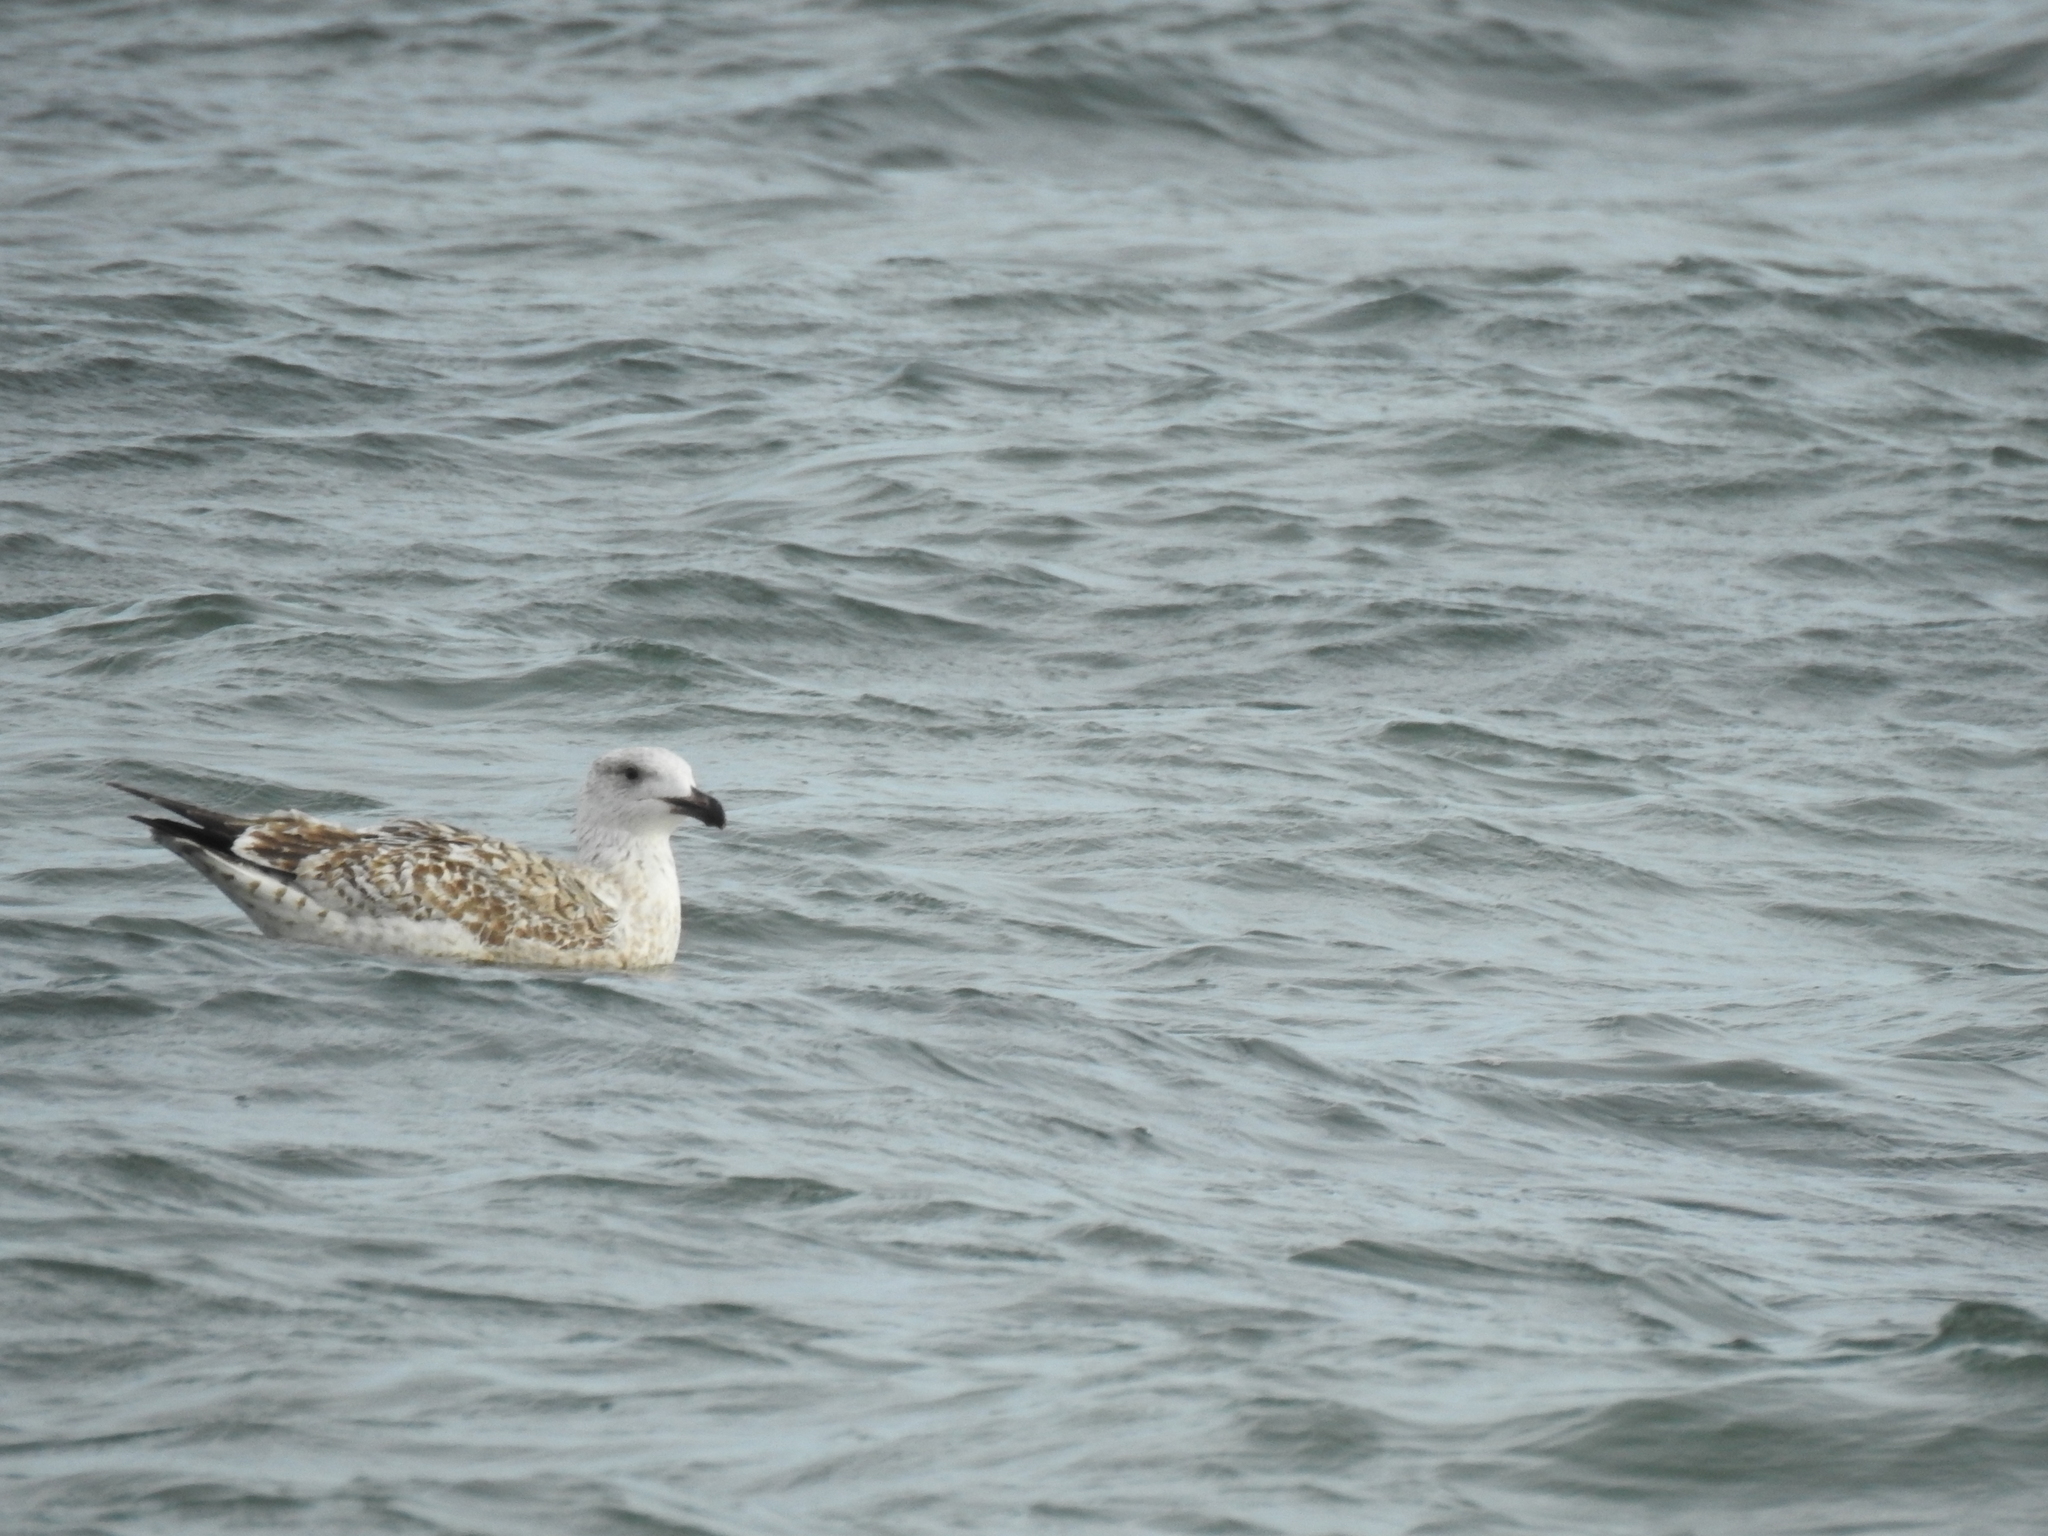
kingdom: Animalia
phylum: Chordata
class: Aves
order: Charadriiformes
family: Laridae
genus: Larus
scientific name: Larus marinus
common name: Great black-backed gull
